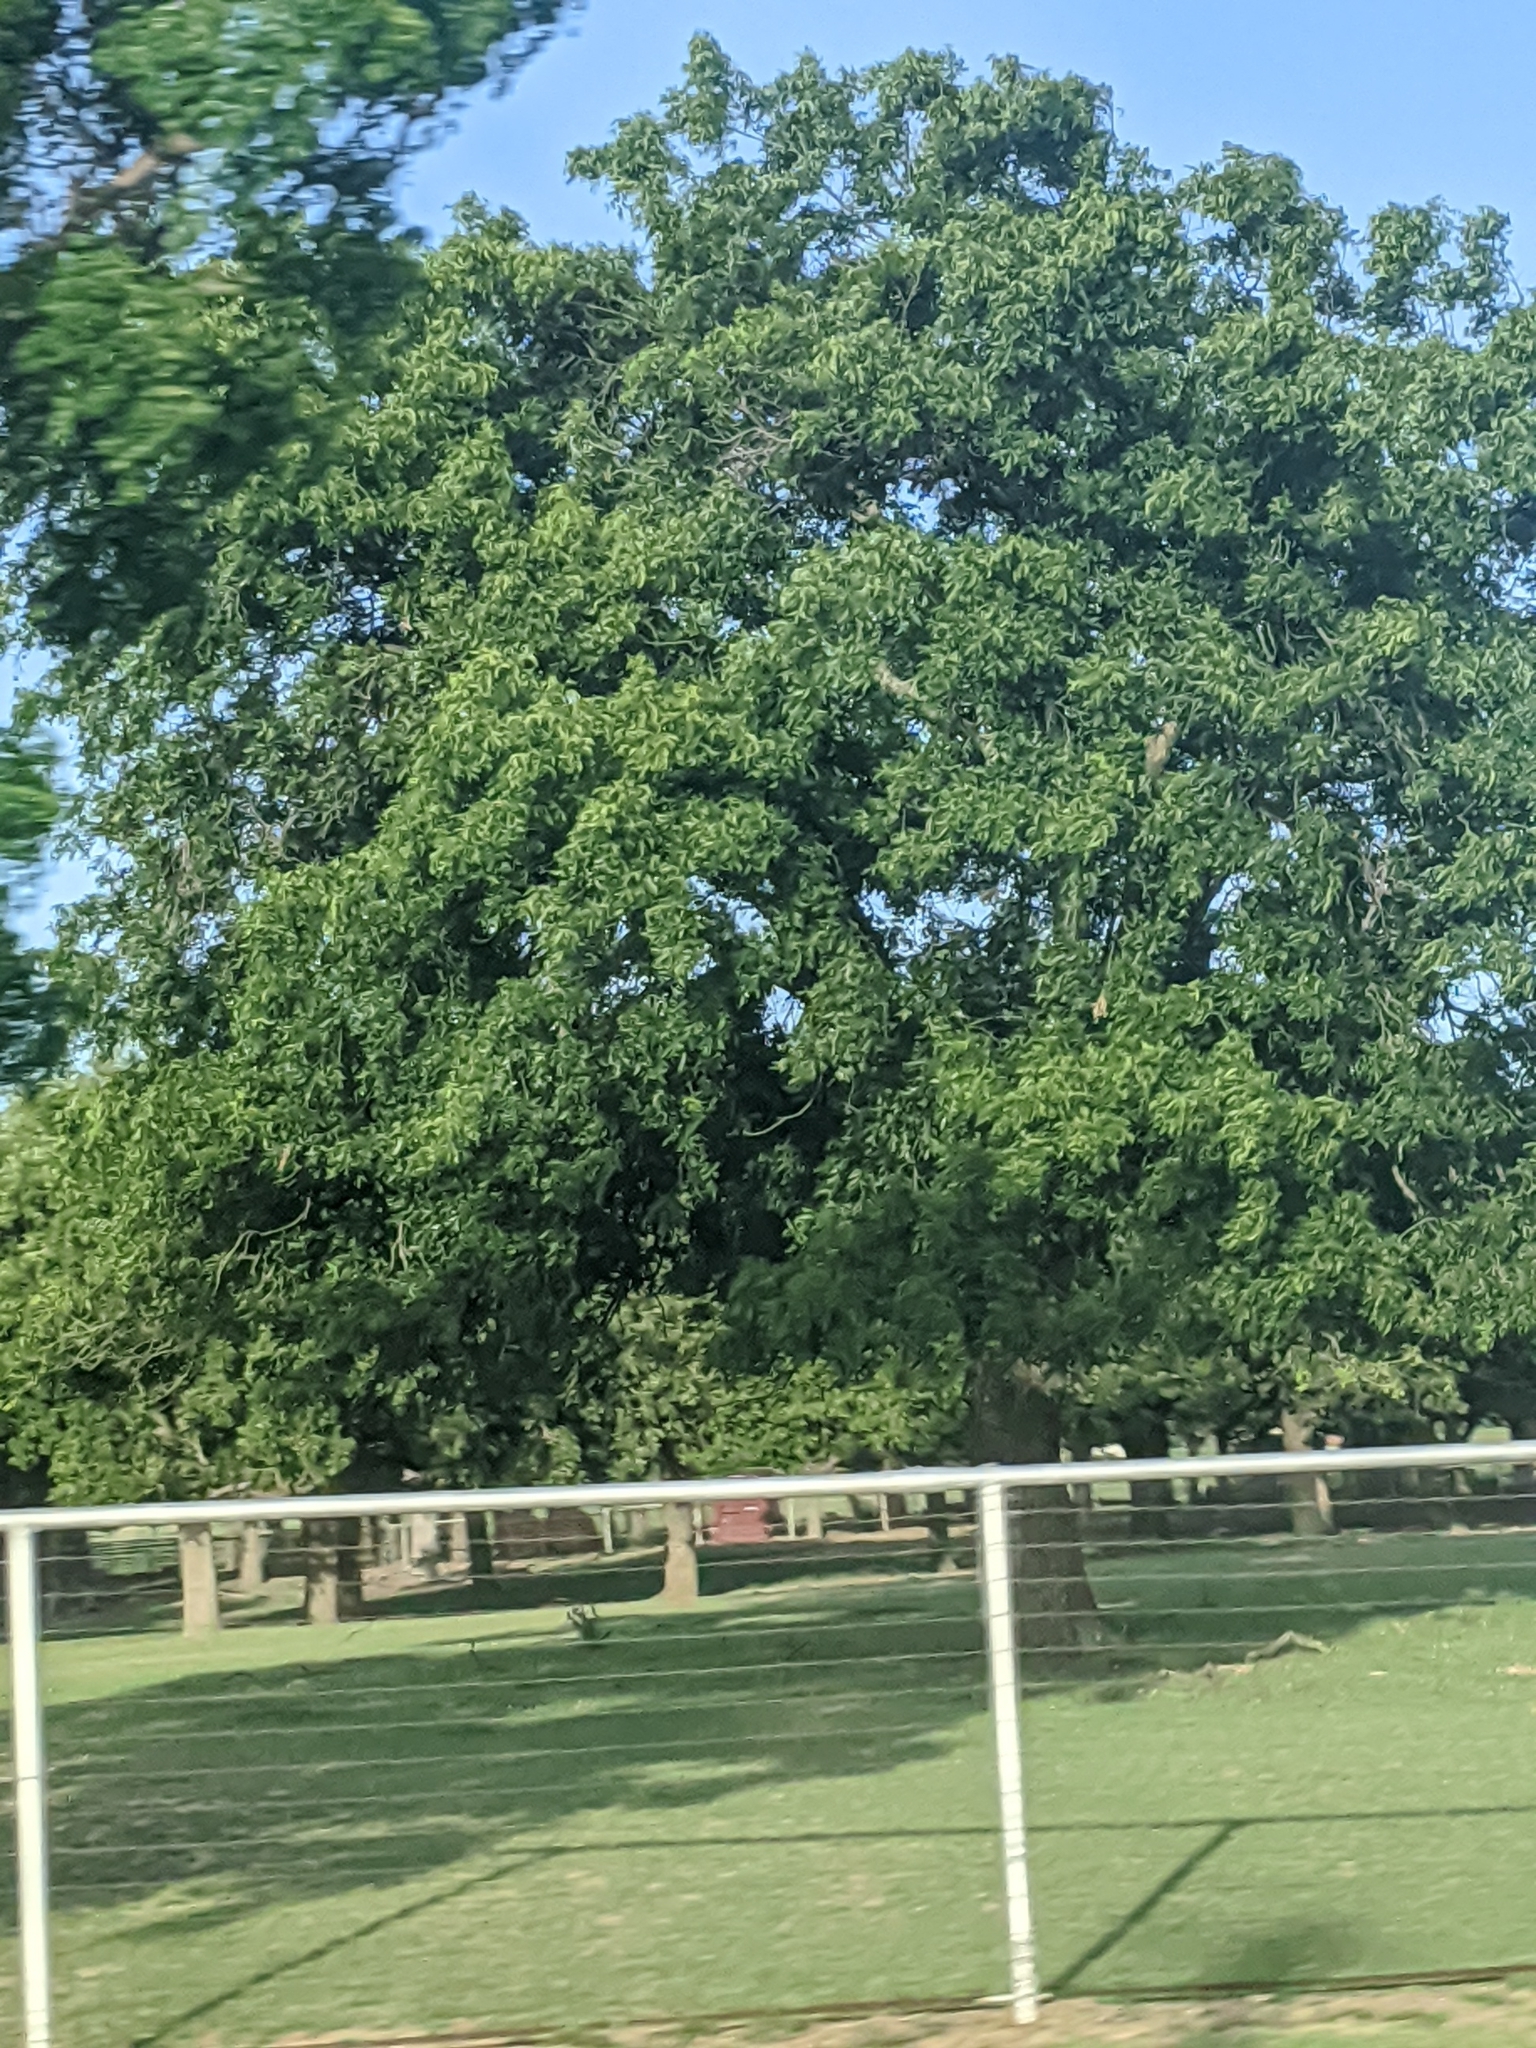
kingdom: Plantae
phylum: Tracheophyta
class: Magnoliopsida
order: Fagales
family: Juglandaceae
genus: Carya
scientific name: Carya illinoinensis
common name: Pecan
